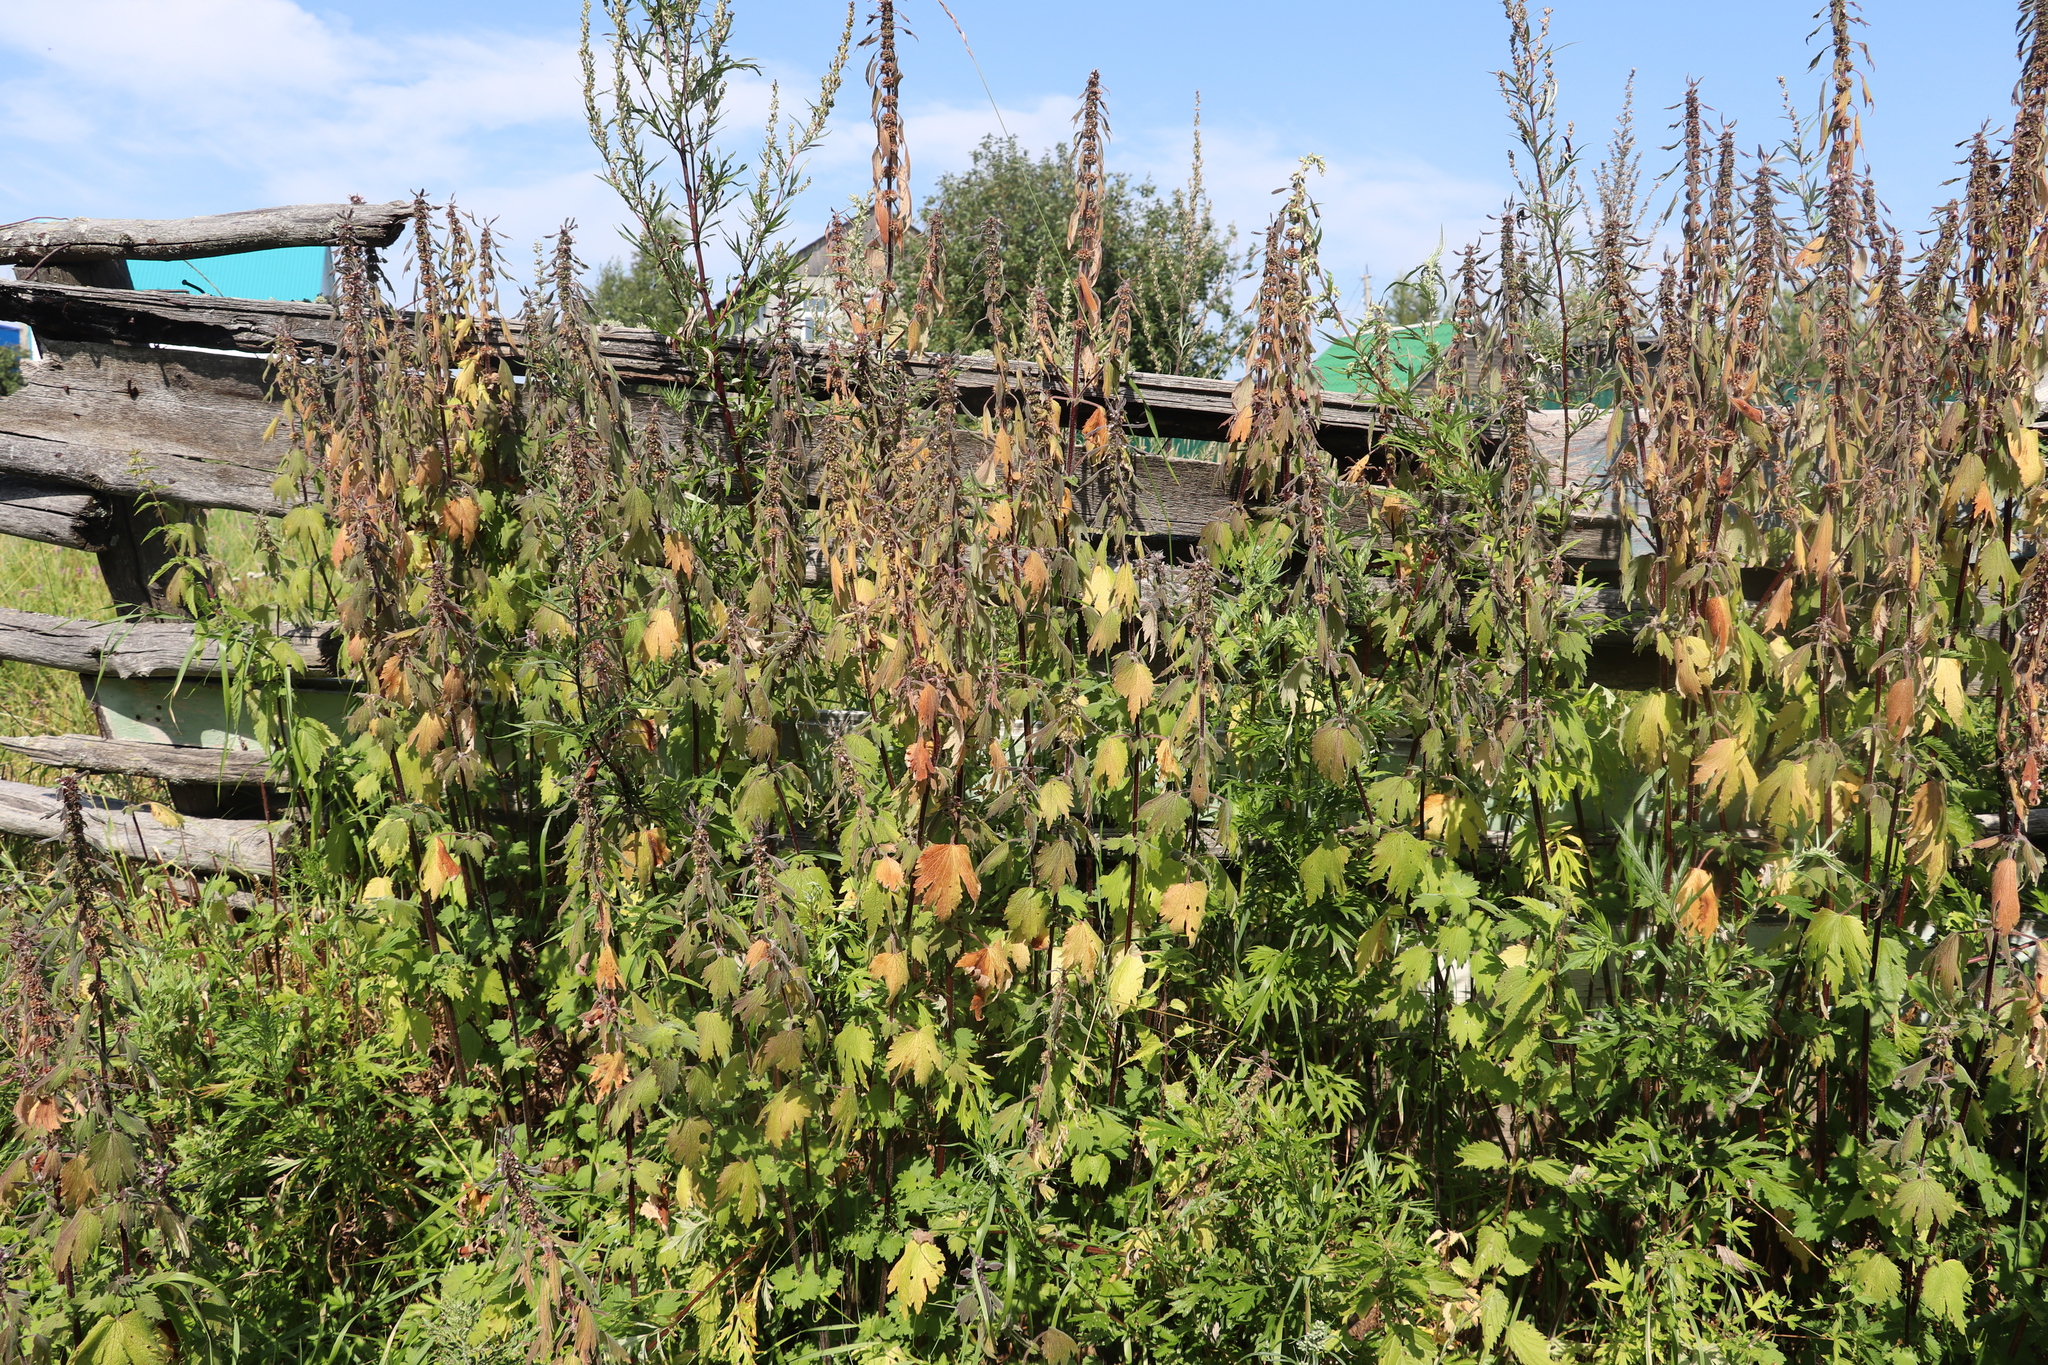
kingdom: Plantae
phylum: Tracheophyta
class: Magnoliopsida
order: Lamiales
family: Lamiaceae
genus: Leonurus
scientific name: Leonurus quinquelobatus
